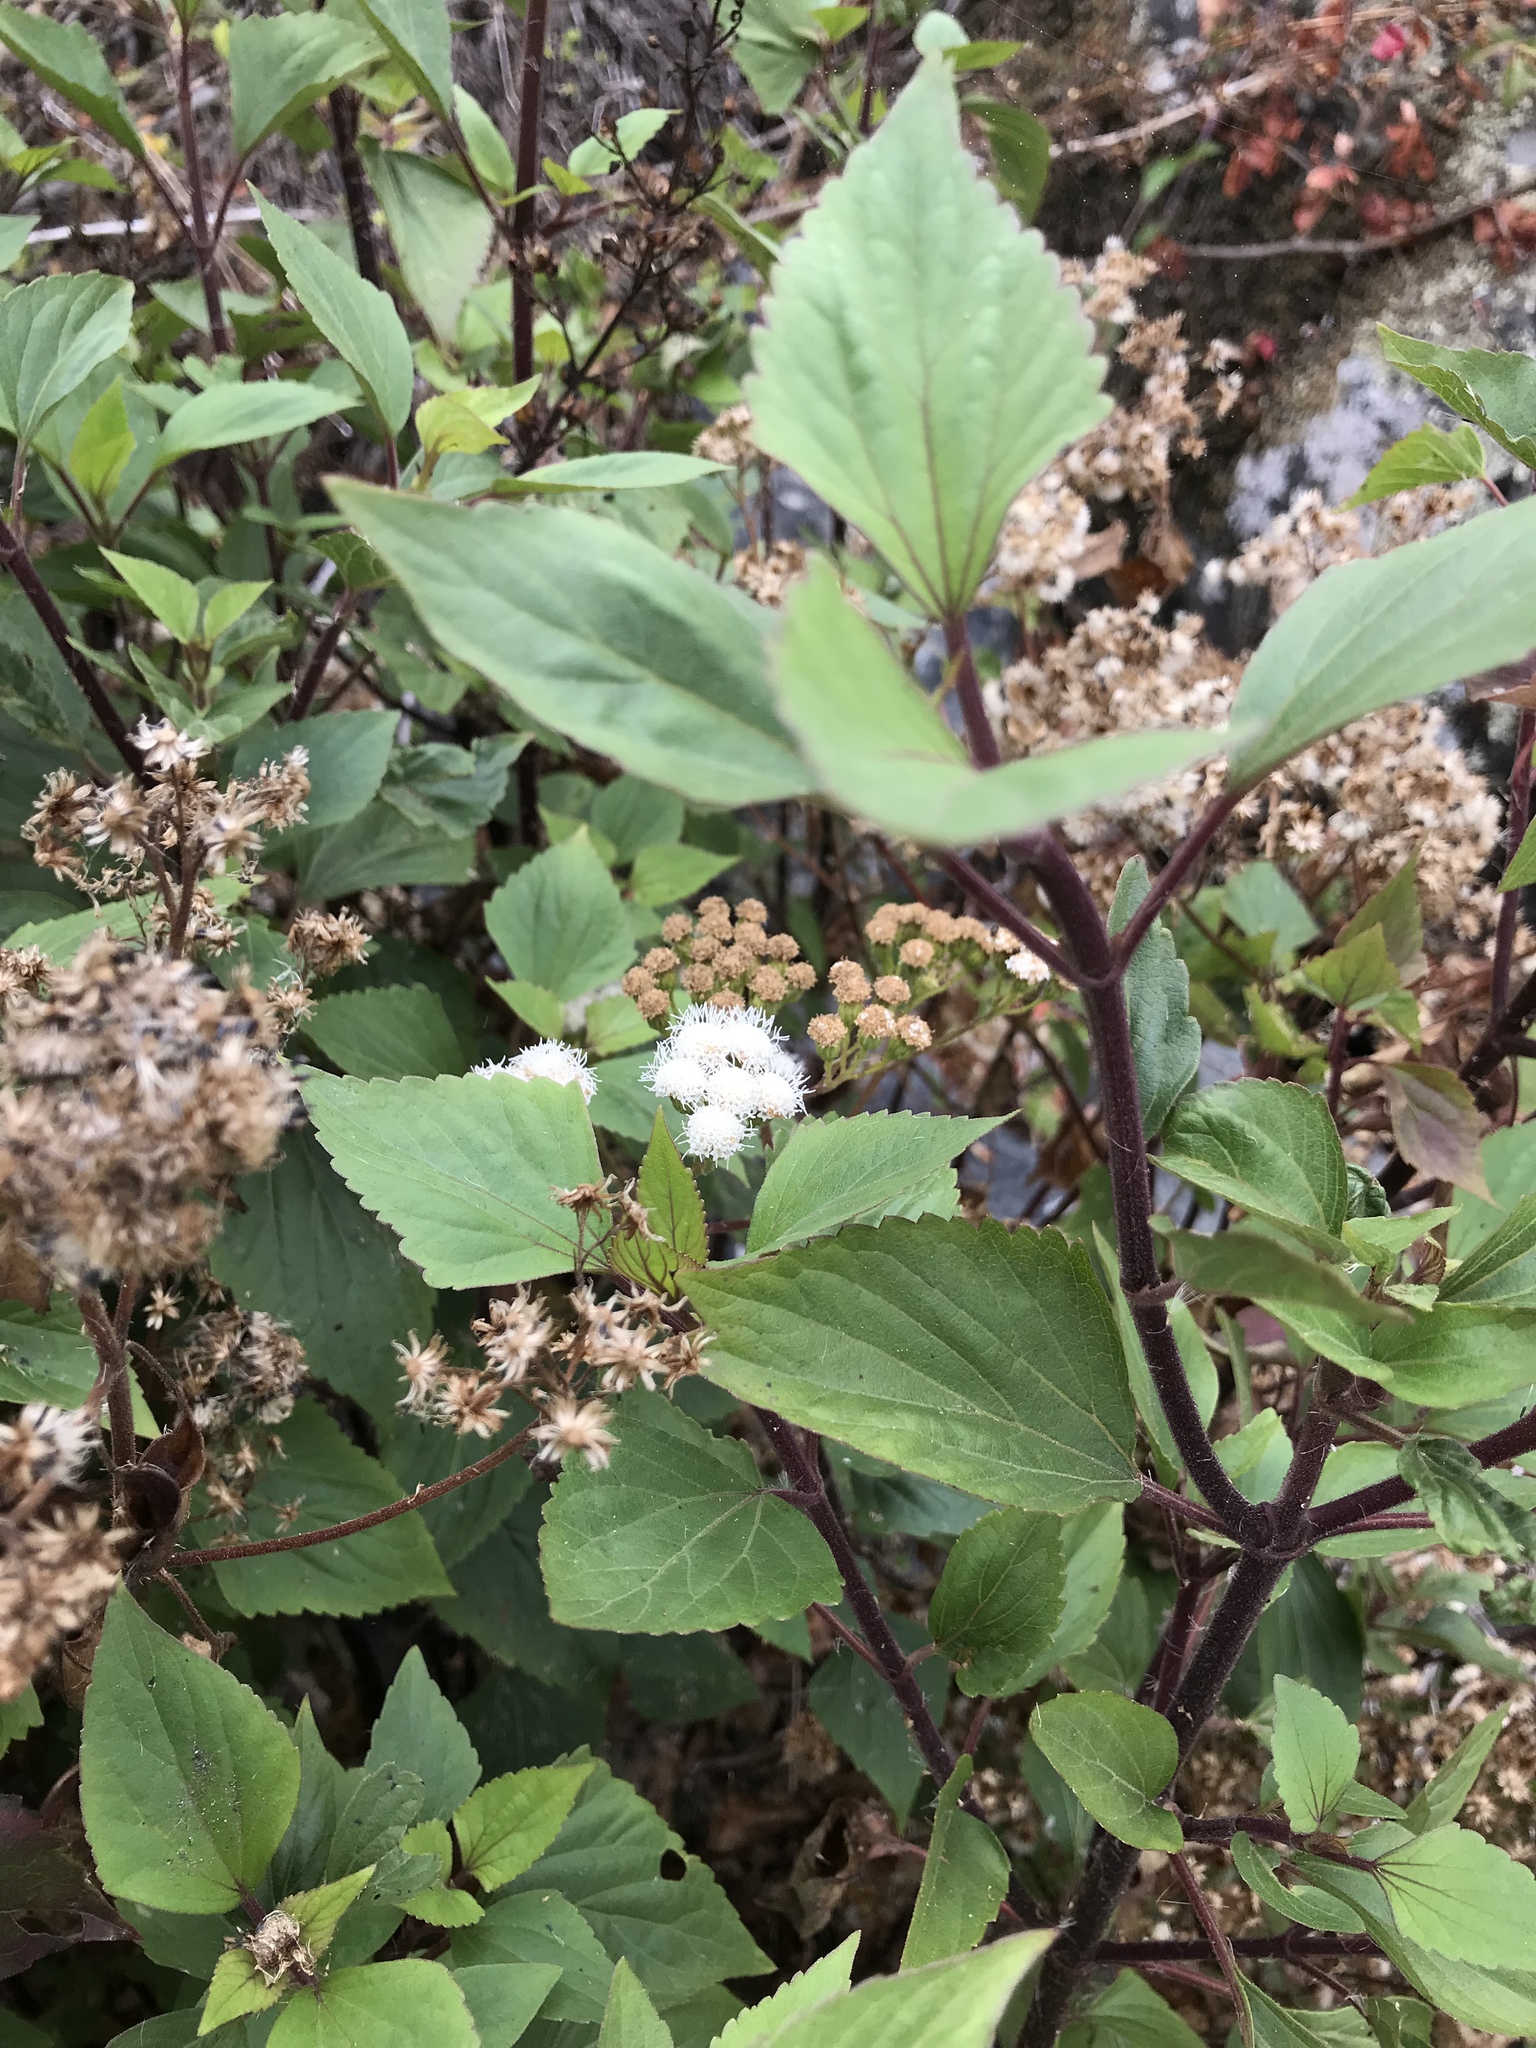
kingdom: Plantae
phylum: Tracheophyta
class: Magnoliopsida
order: Asterales
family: Asteraceae
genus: Ageratina
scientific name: Ageratina adenophora
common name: Sticky snakeroot
